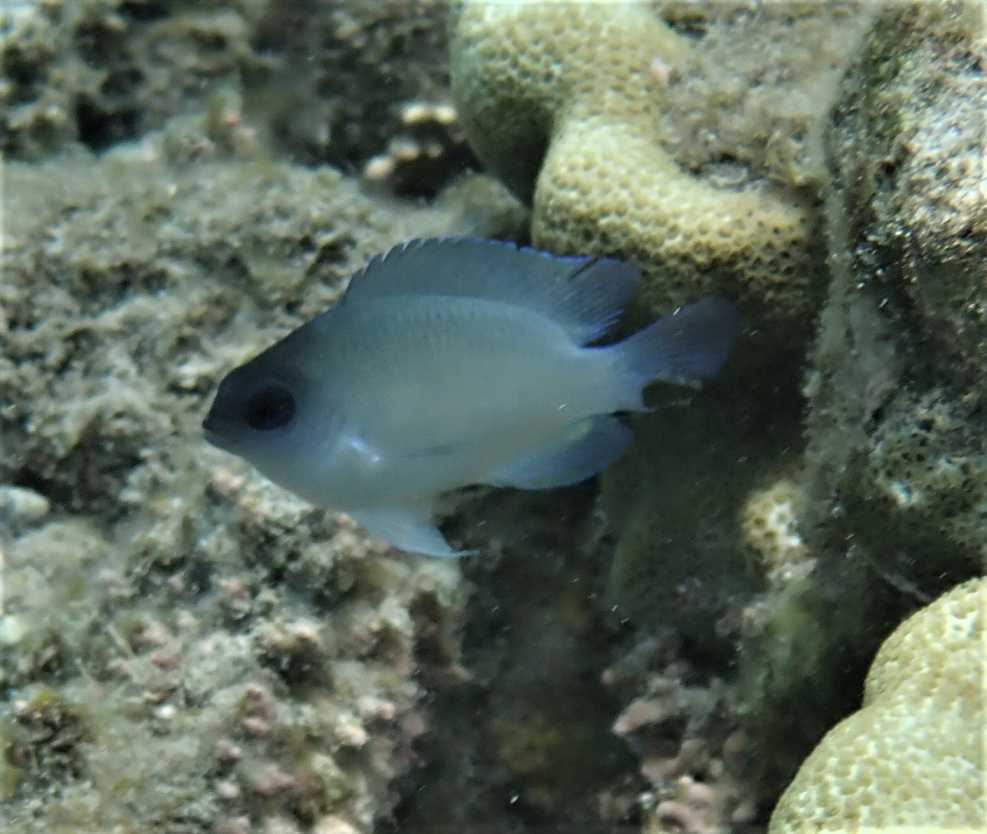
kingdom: Animalia
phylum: Chordata
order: Perciformes
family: Pomacentridae
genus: Chrysiptera
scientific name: Chrysiptera glauca
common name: Grey demoiselle
